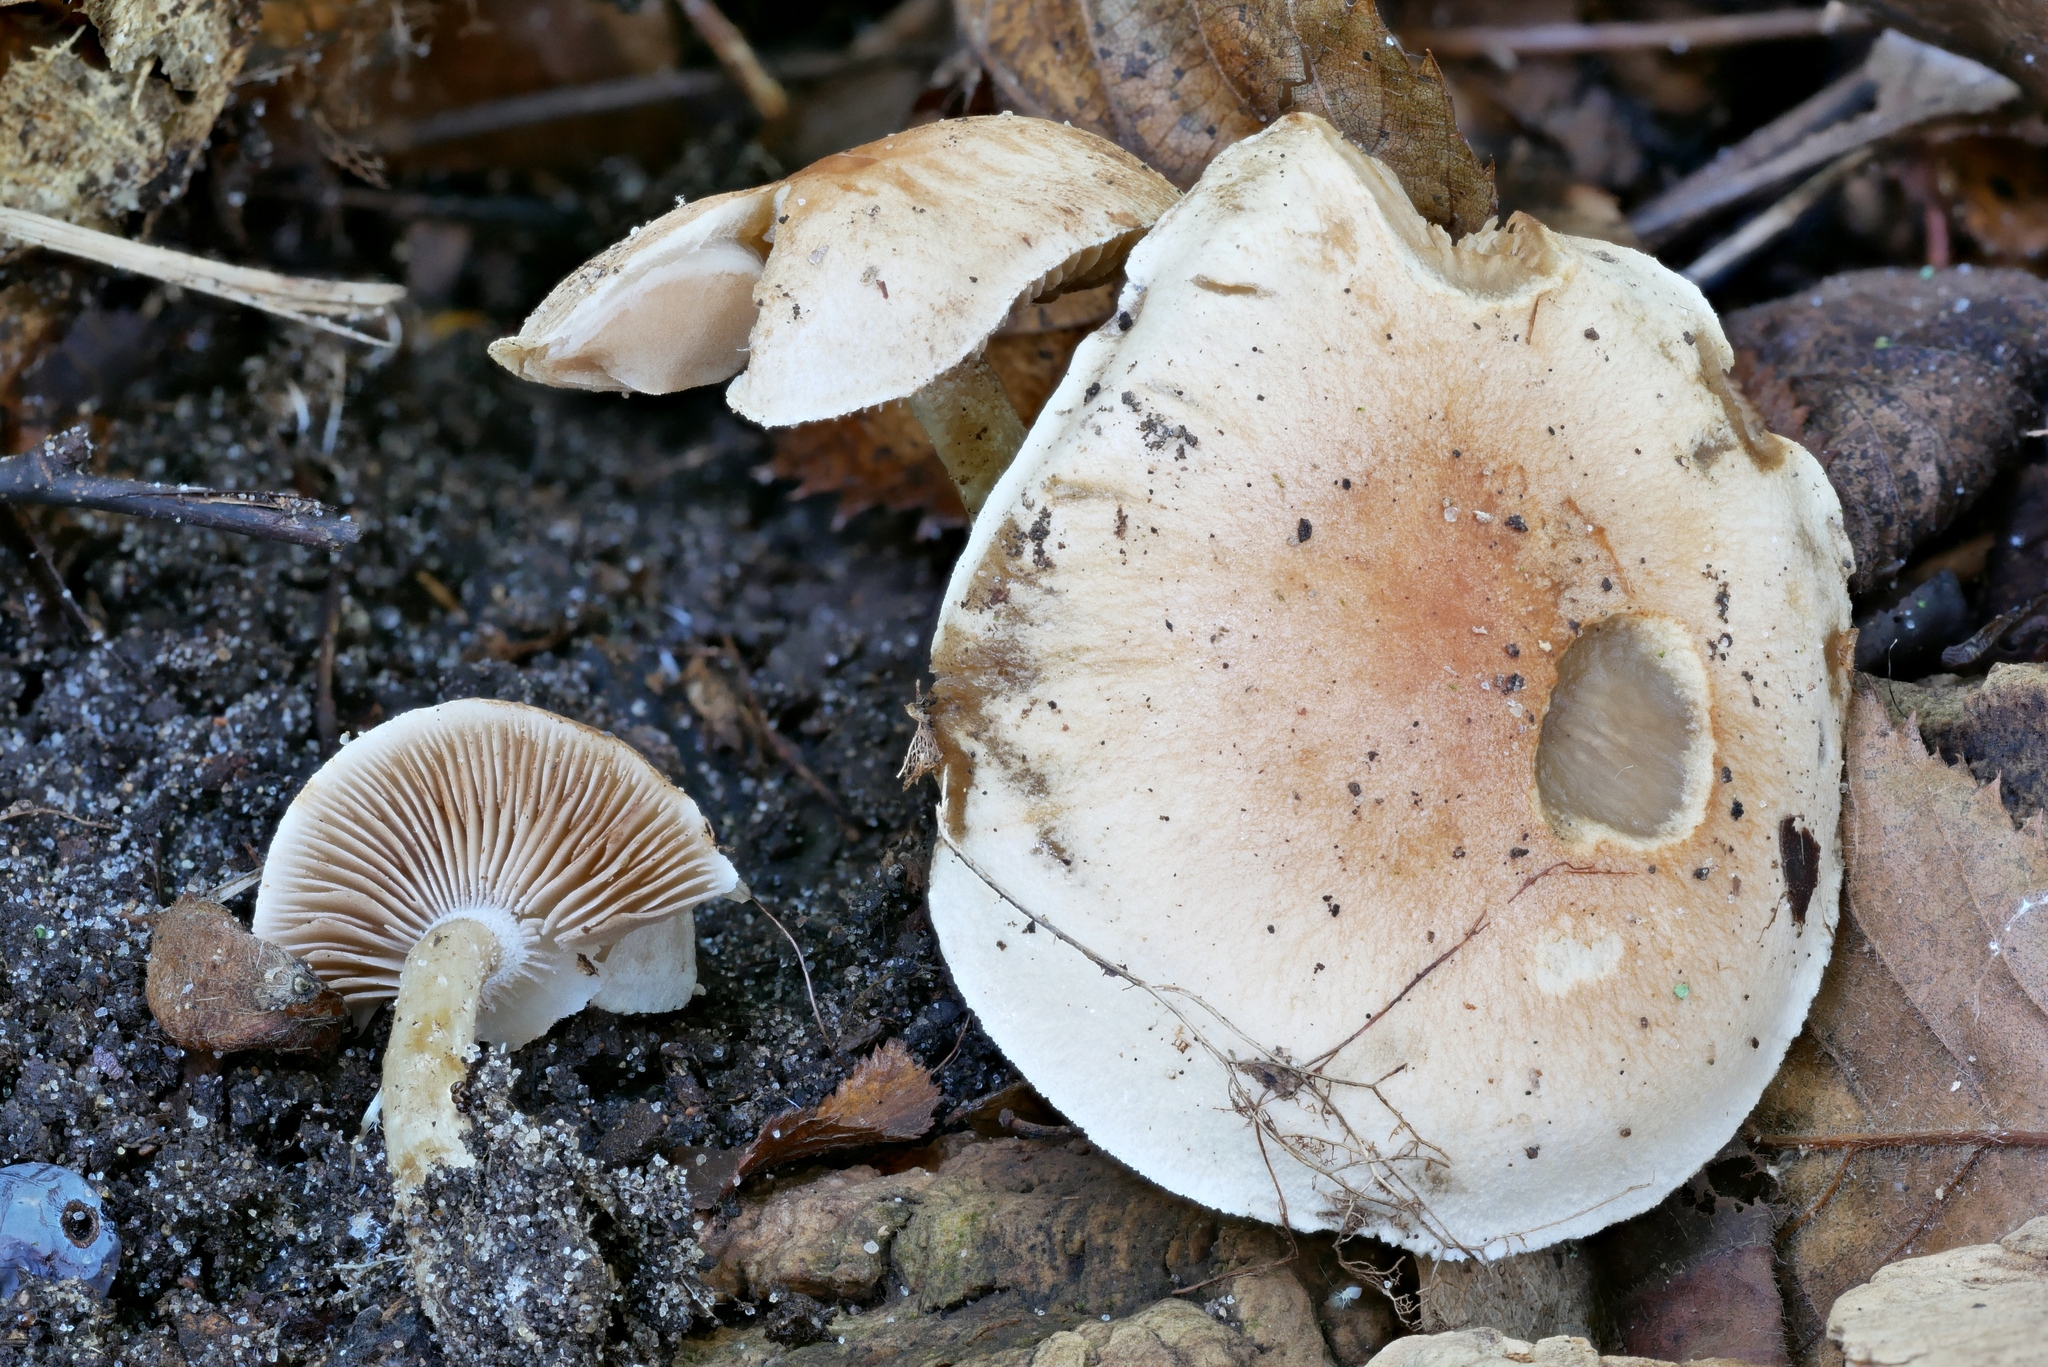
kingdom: Fungi
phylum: Basidiomycota
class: Agaricomycetes
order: Agaricales
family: Hymenogastraceae
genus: Hebeloma
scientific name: Hebeloma sordidum
